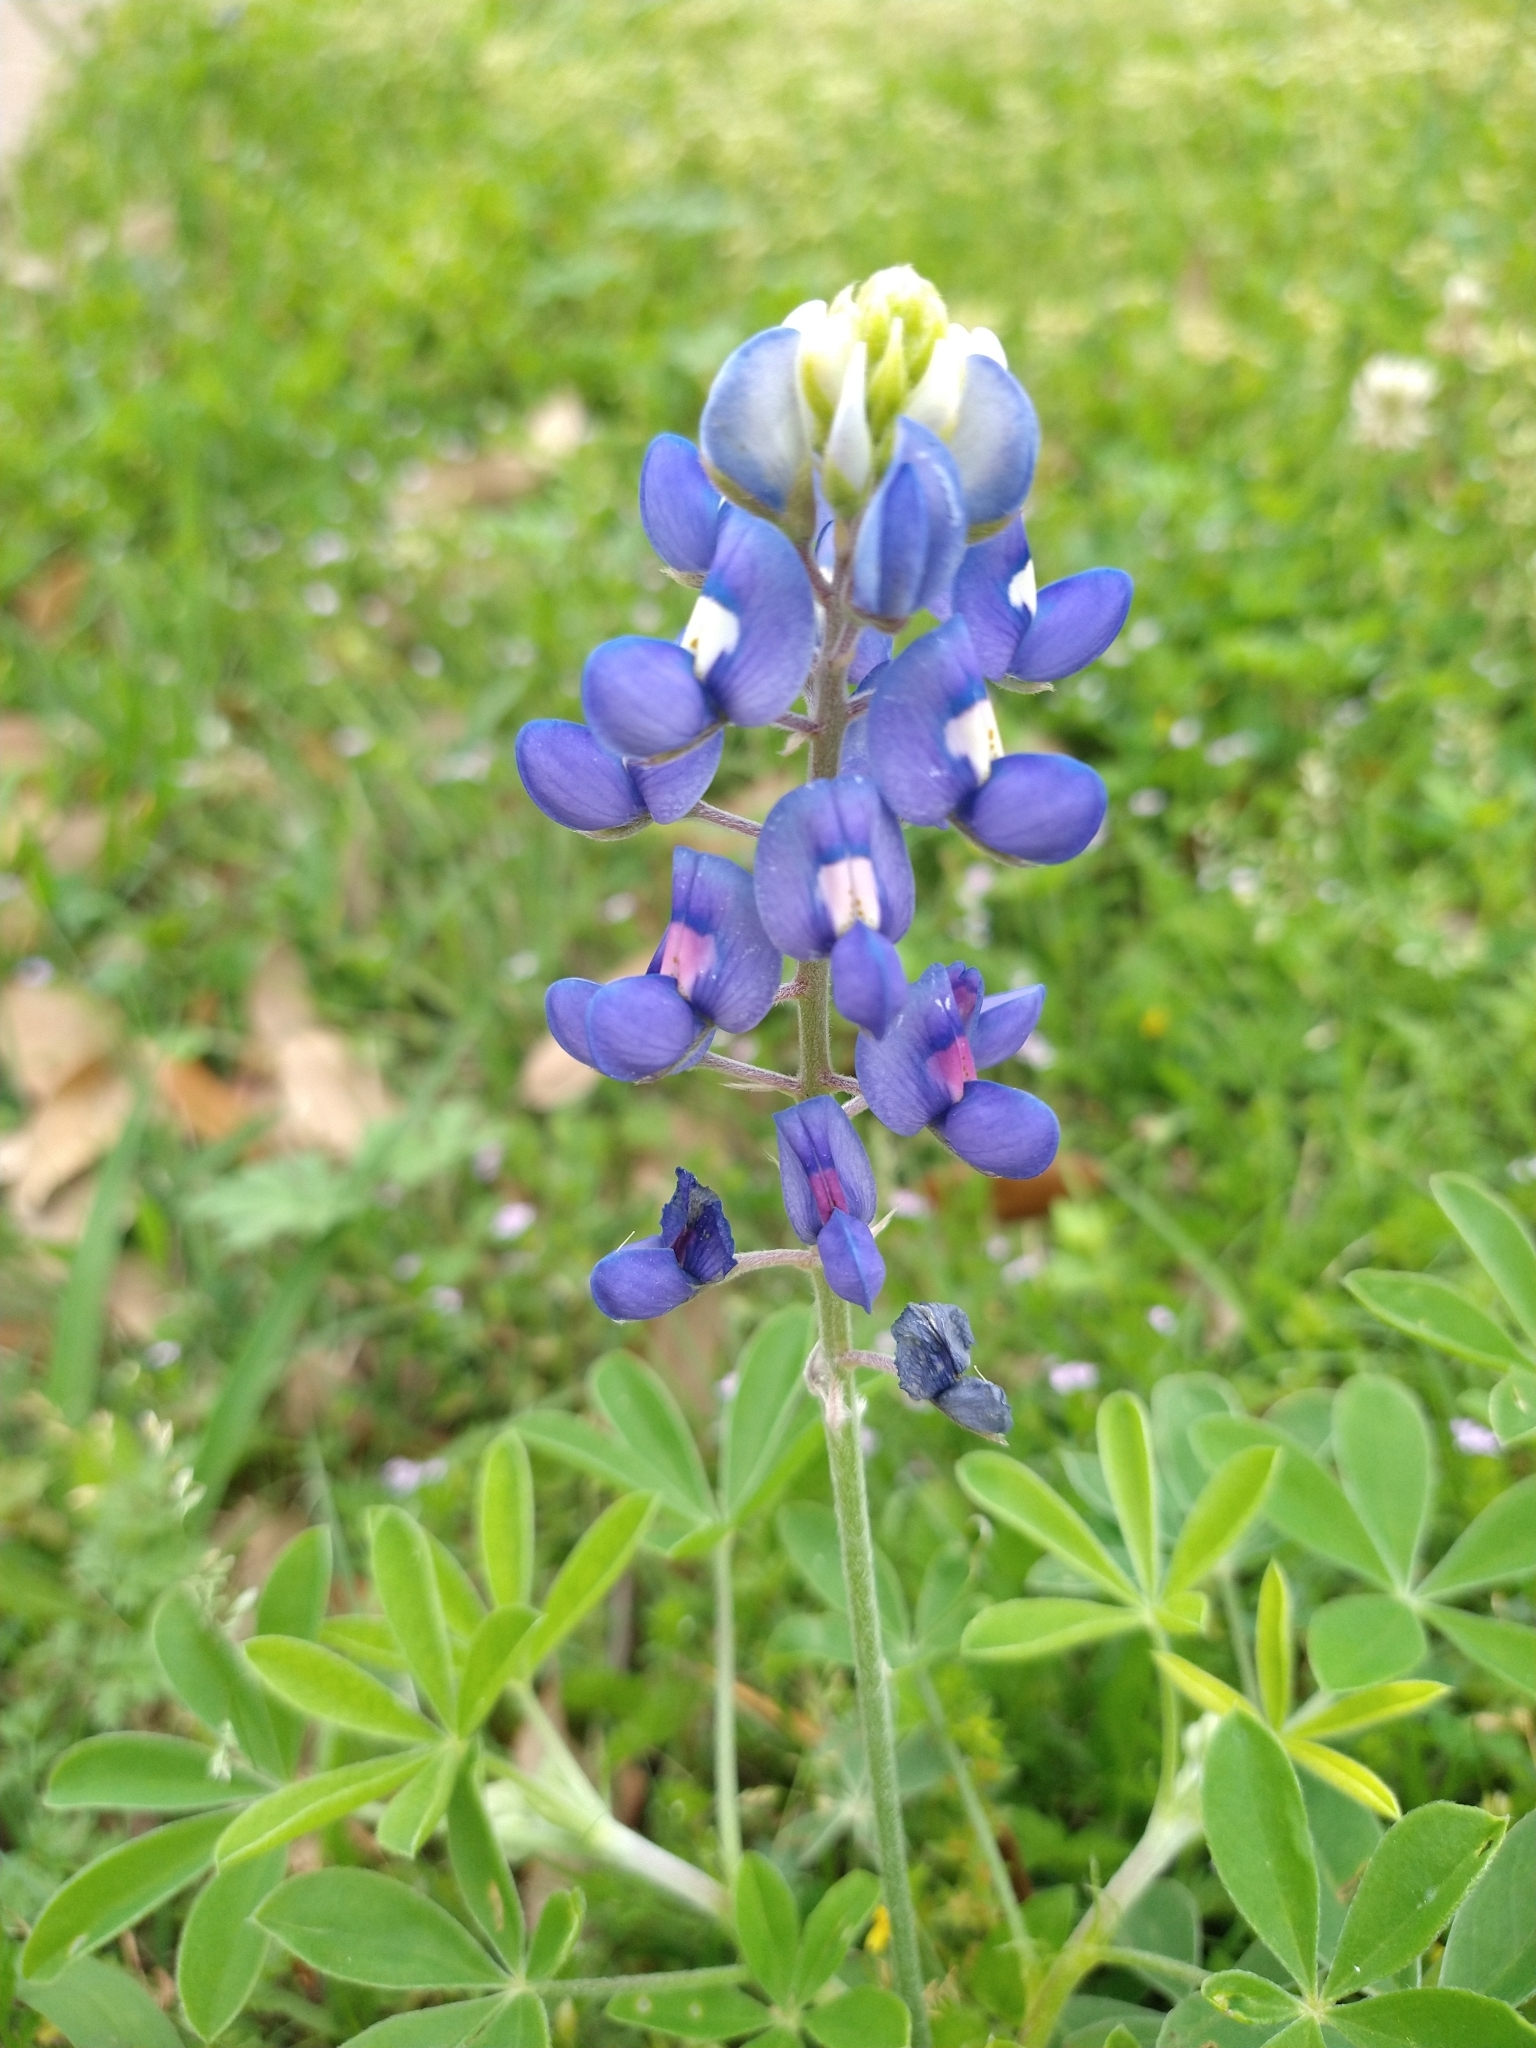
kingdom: Plantae
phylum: Tracheophyta
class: Magnoliopsida
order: Fabales
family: Fabaceae
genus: Lupinus
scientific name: Lupinus texensis
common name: Texas bluebonnet
